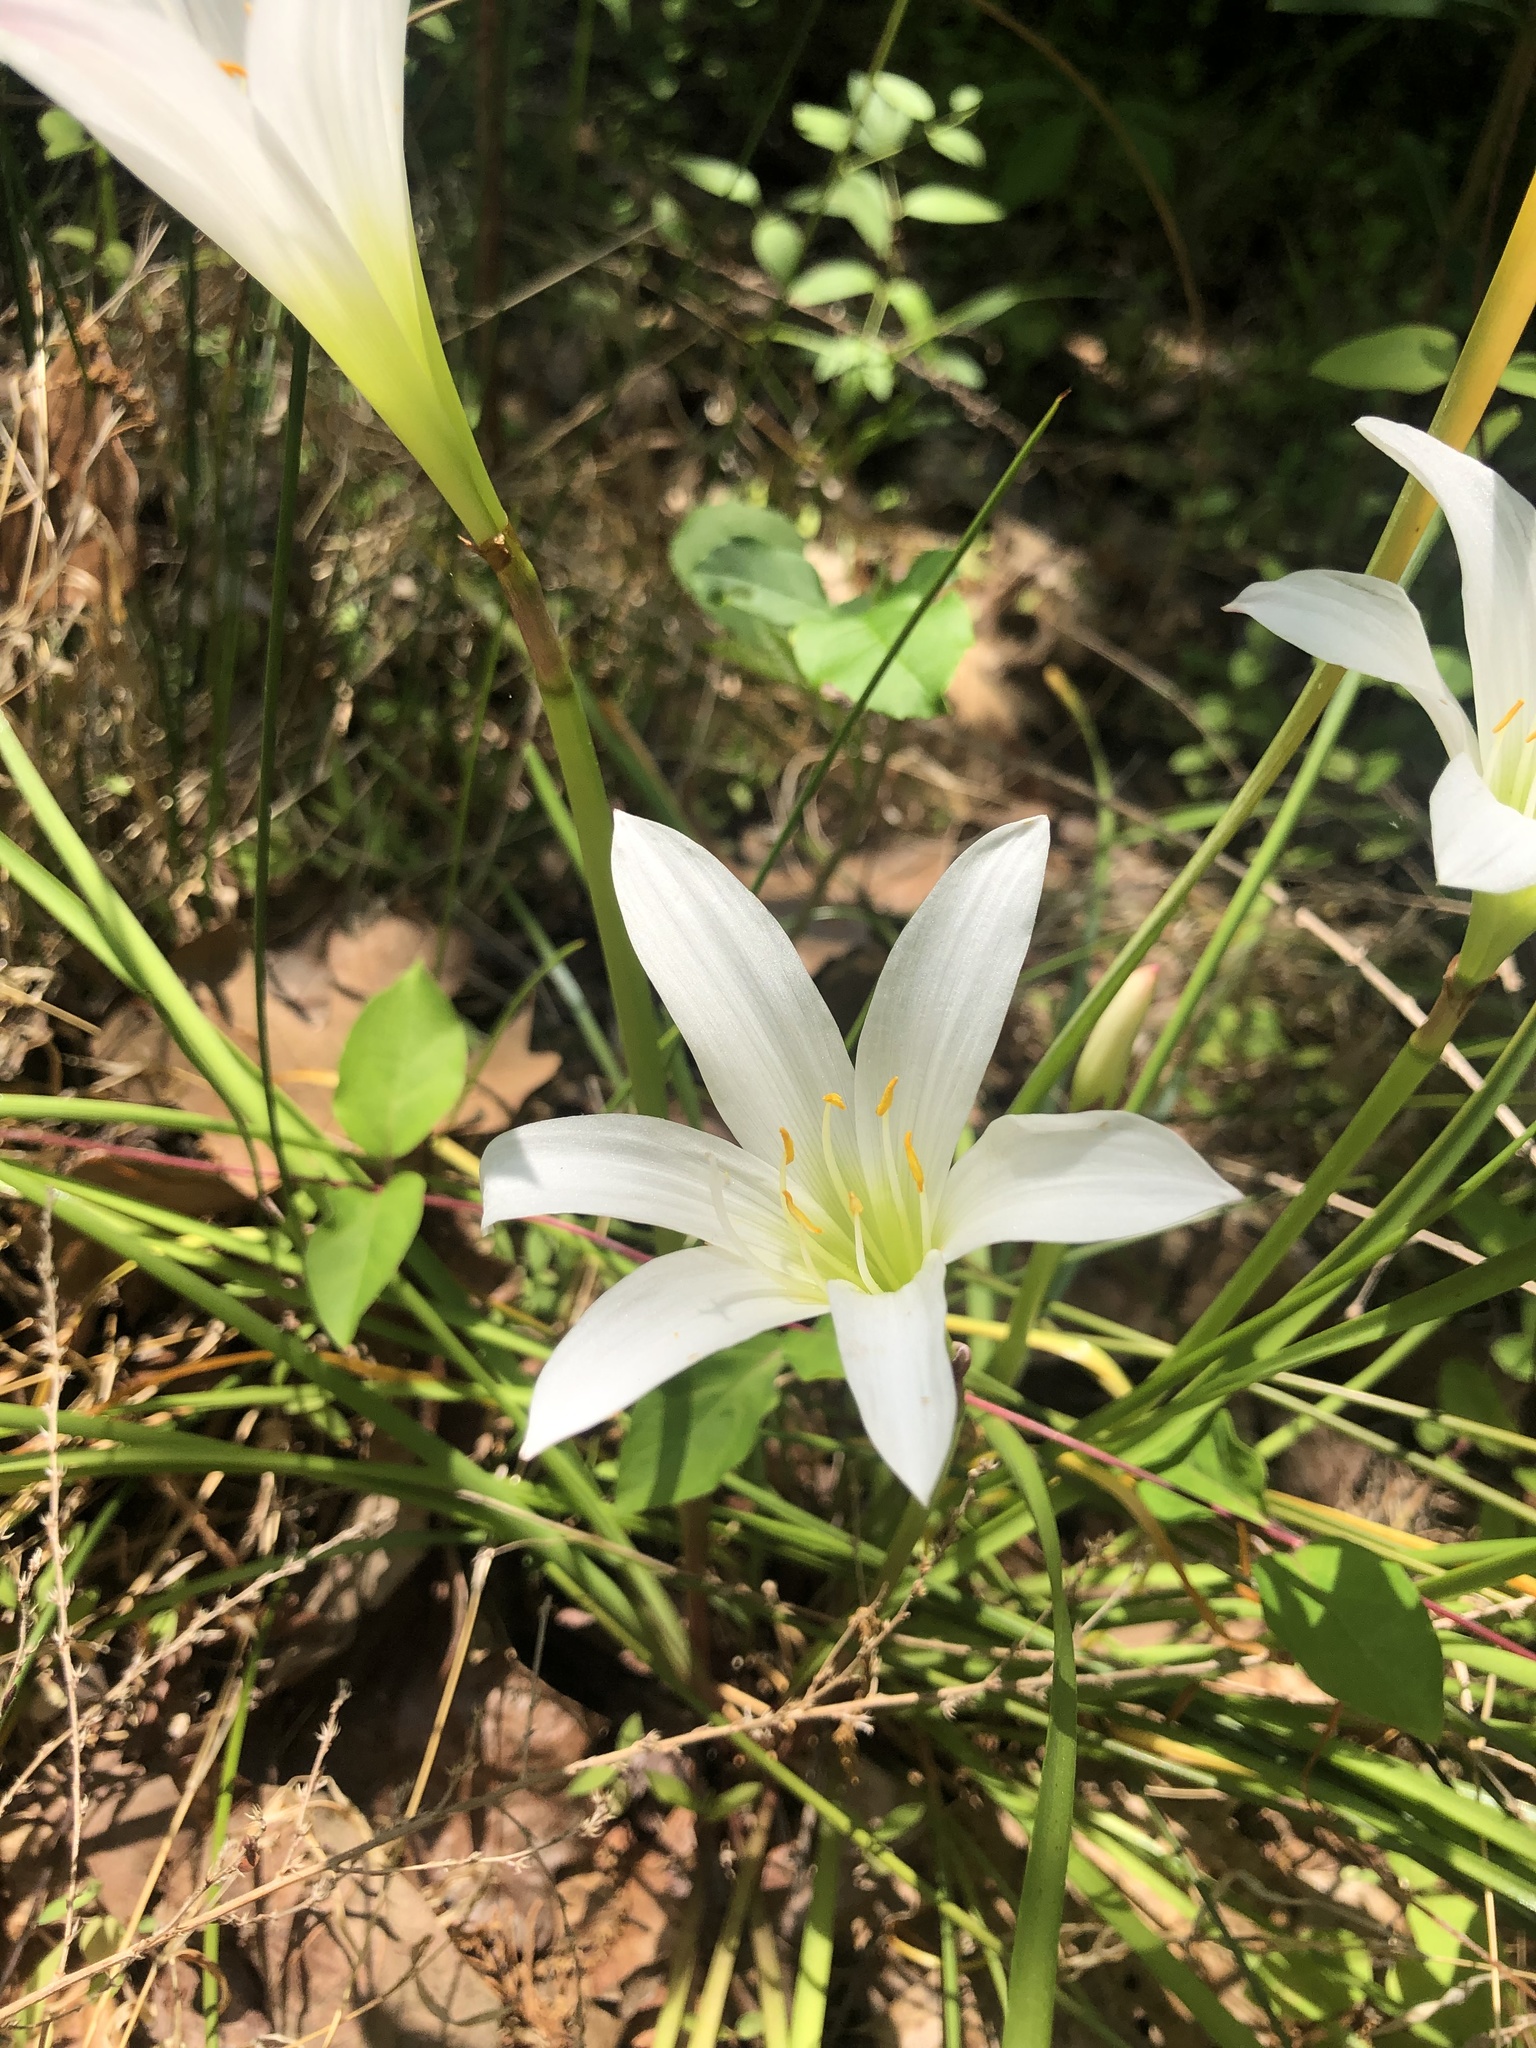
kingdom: Plantae
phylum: Tracheophyta
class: Liliopsida
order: Asparagales
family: Amaryllidaceae
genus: Zephyranthes
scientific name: Zephyranthes atamasco
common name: Atamasco lily
